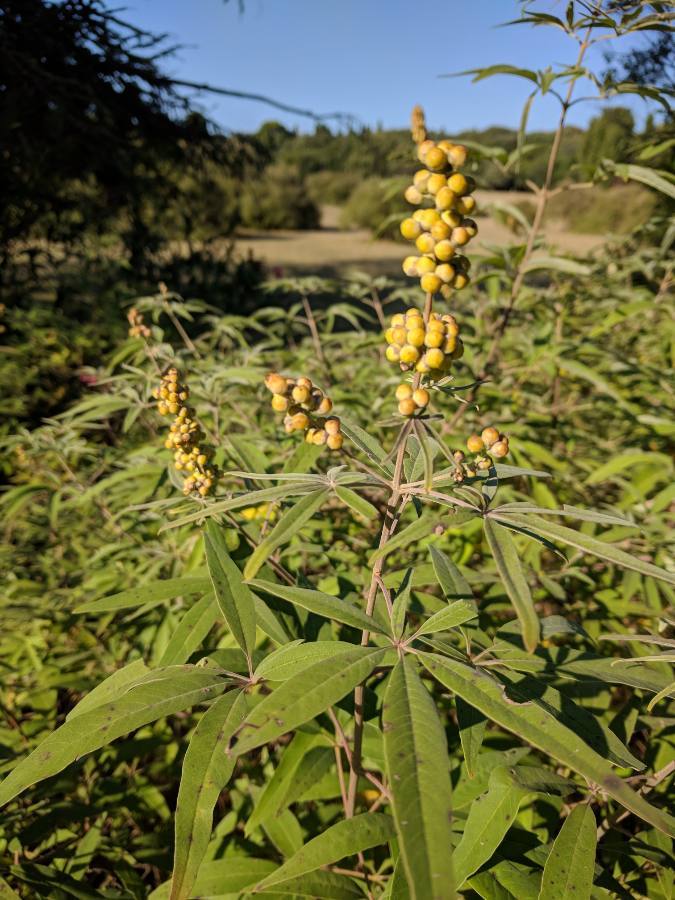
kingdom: Plantae
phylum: Tracheophyta
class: Magnoliopsida
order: Lamiales
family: Lamiaceae
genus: Vitex
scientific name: Vitex agnus-castus
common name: Chasteberry
